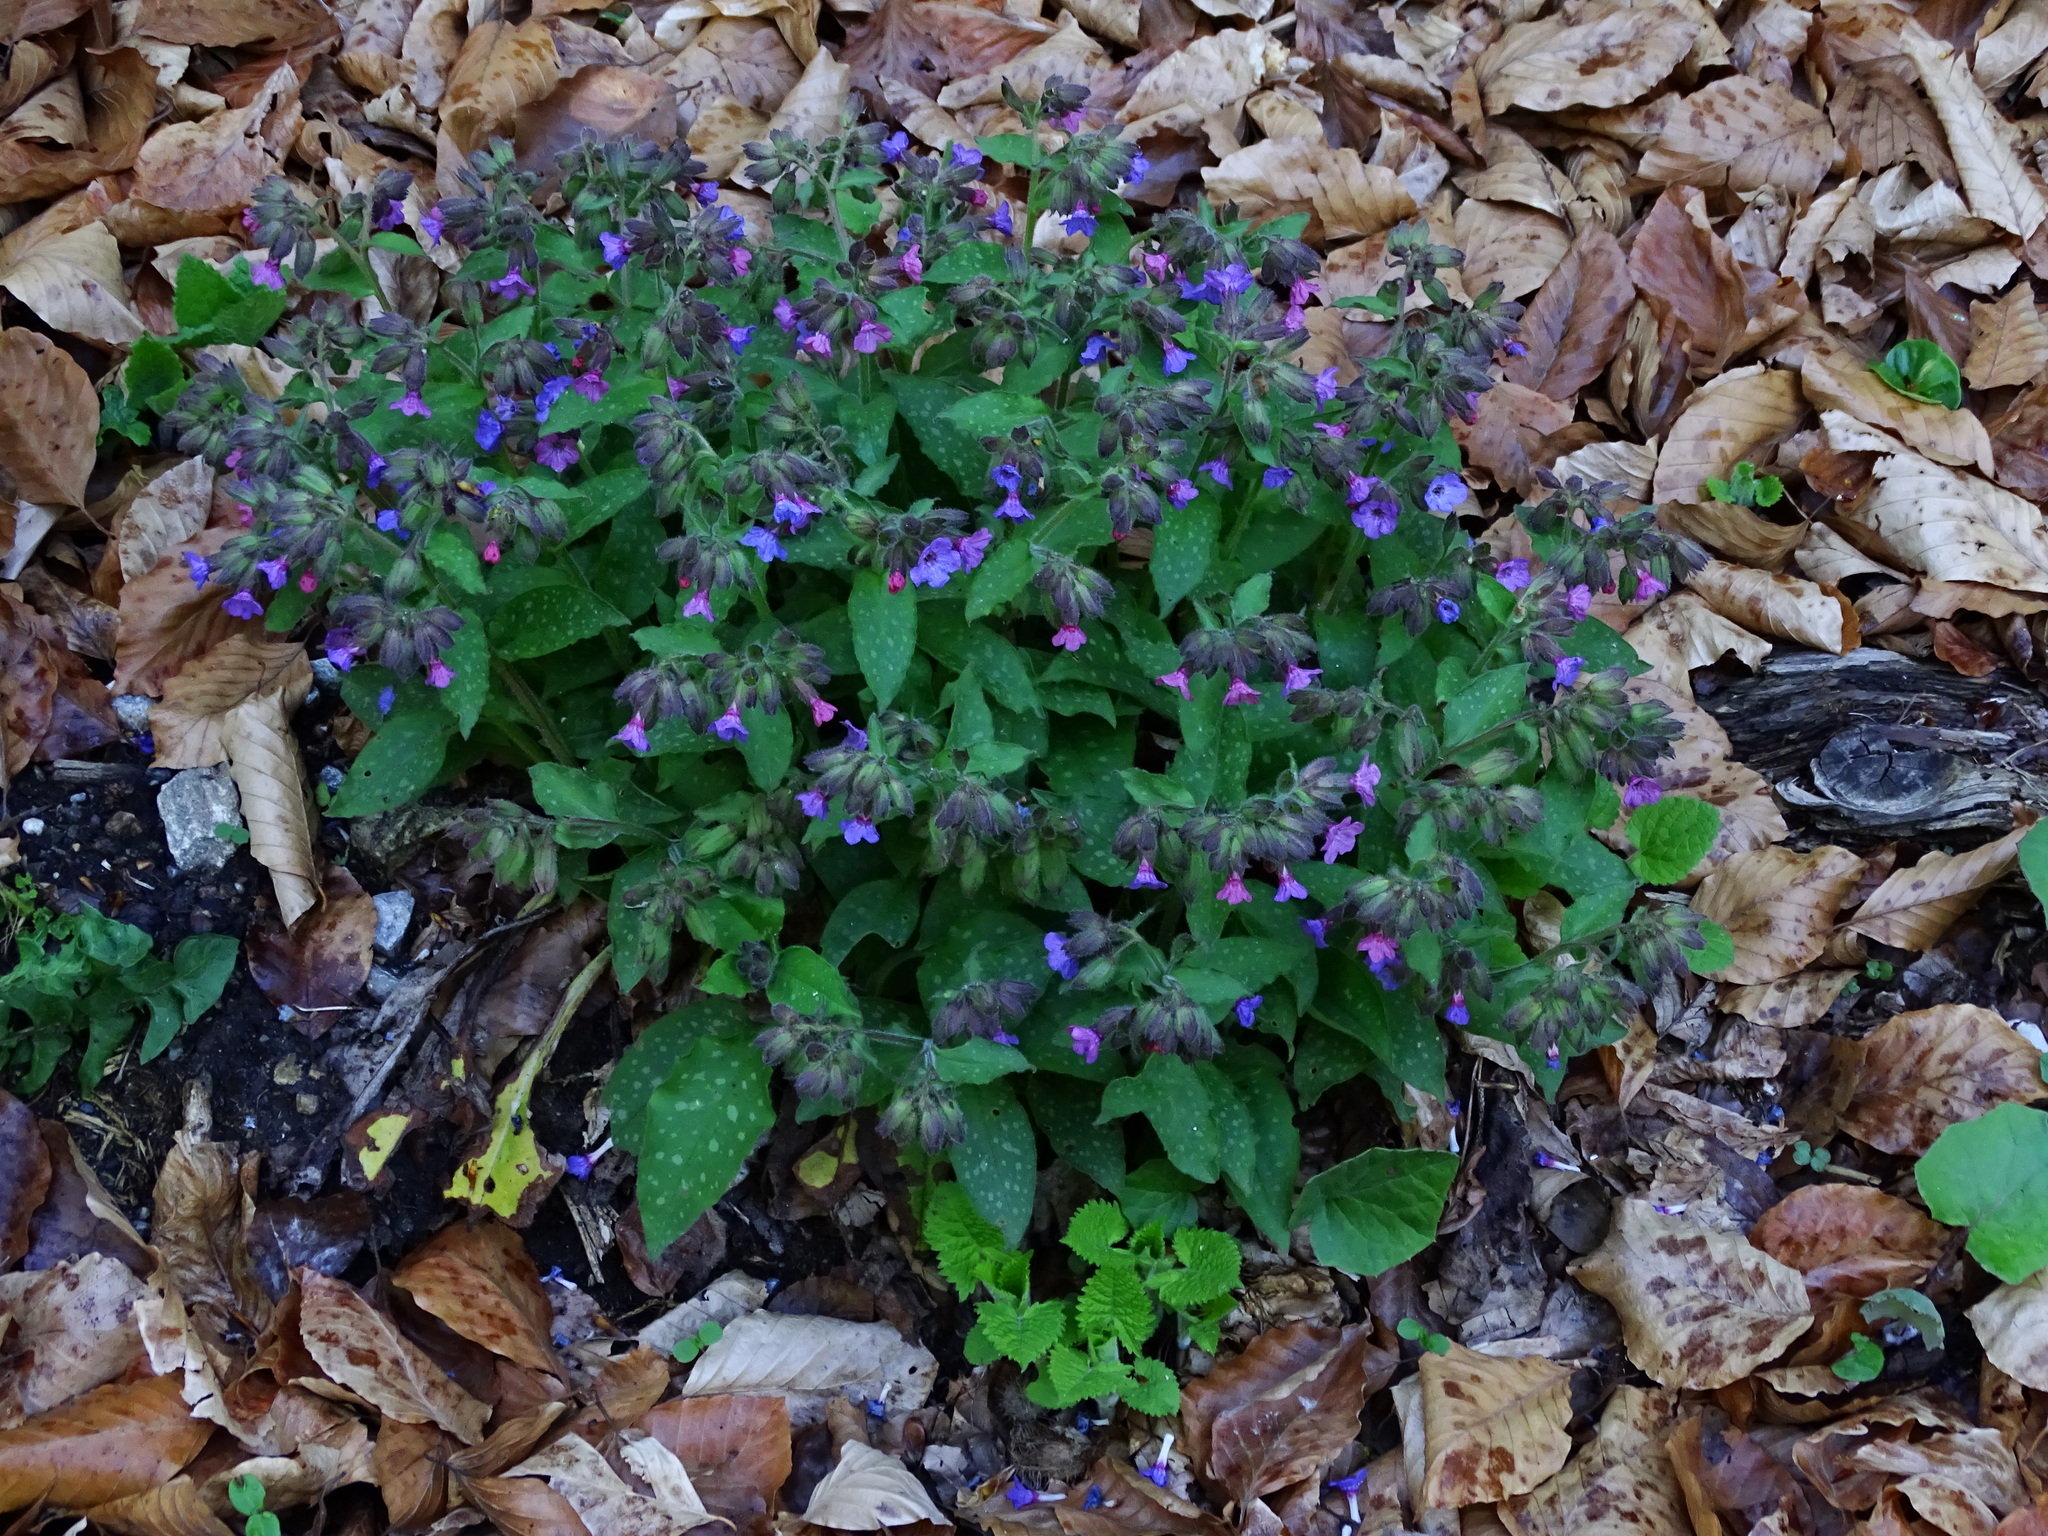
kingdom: Plantae
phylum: Tracheophyta
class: Magnoliopsida
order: Boraginales
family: Boraginaceae
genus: Pulmonaria
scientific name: Pulmonaria officinalis
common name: Lungwort
